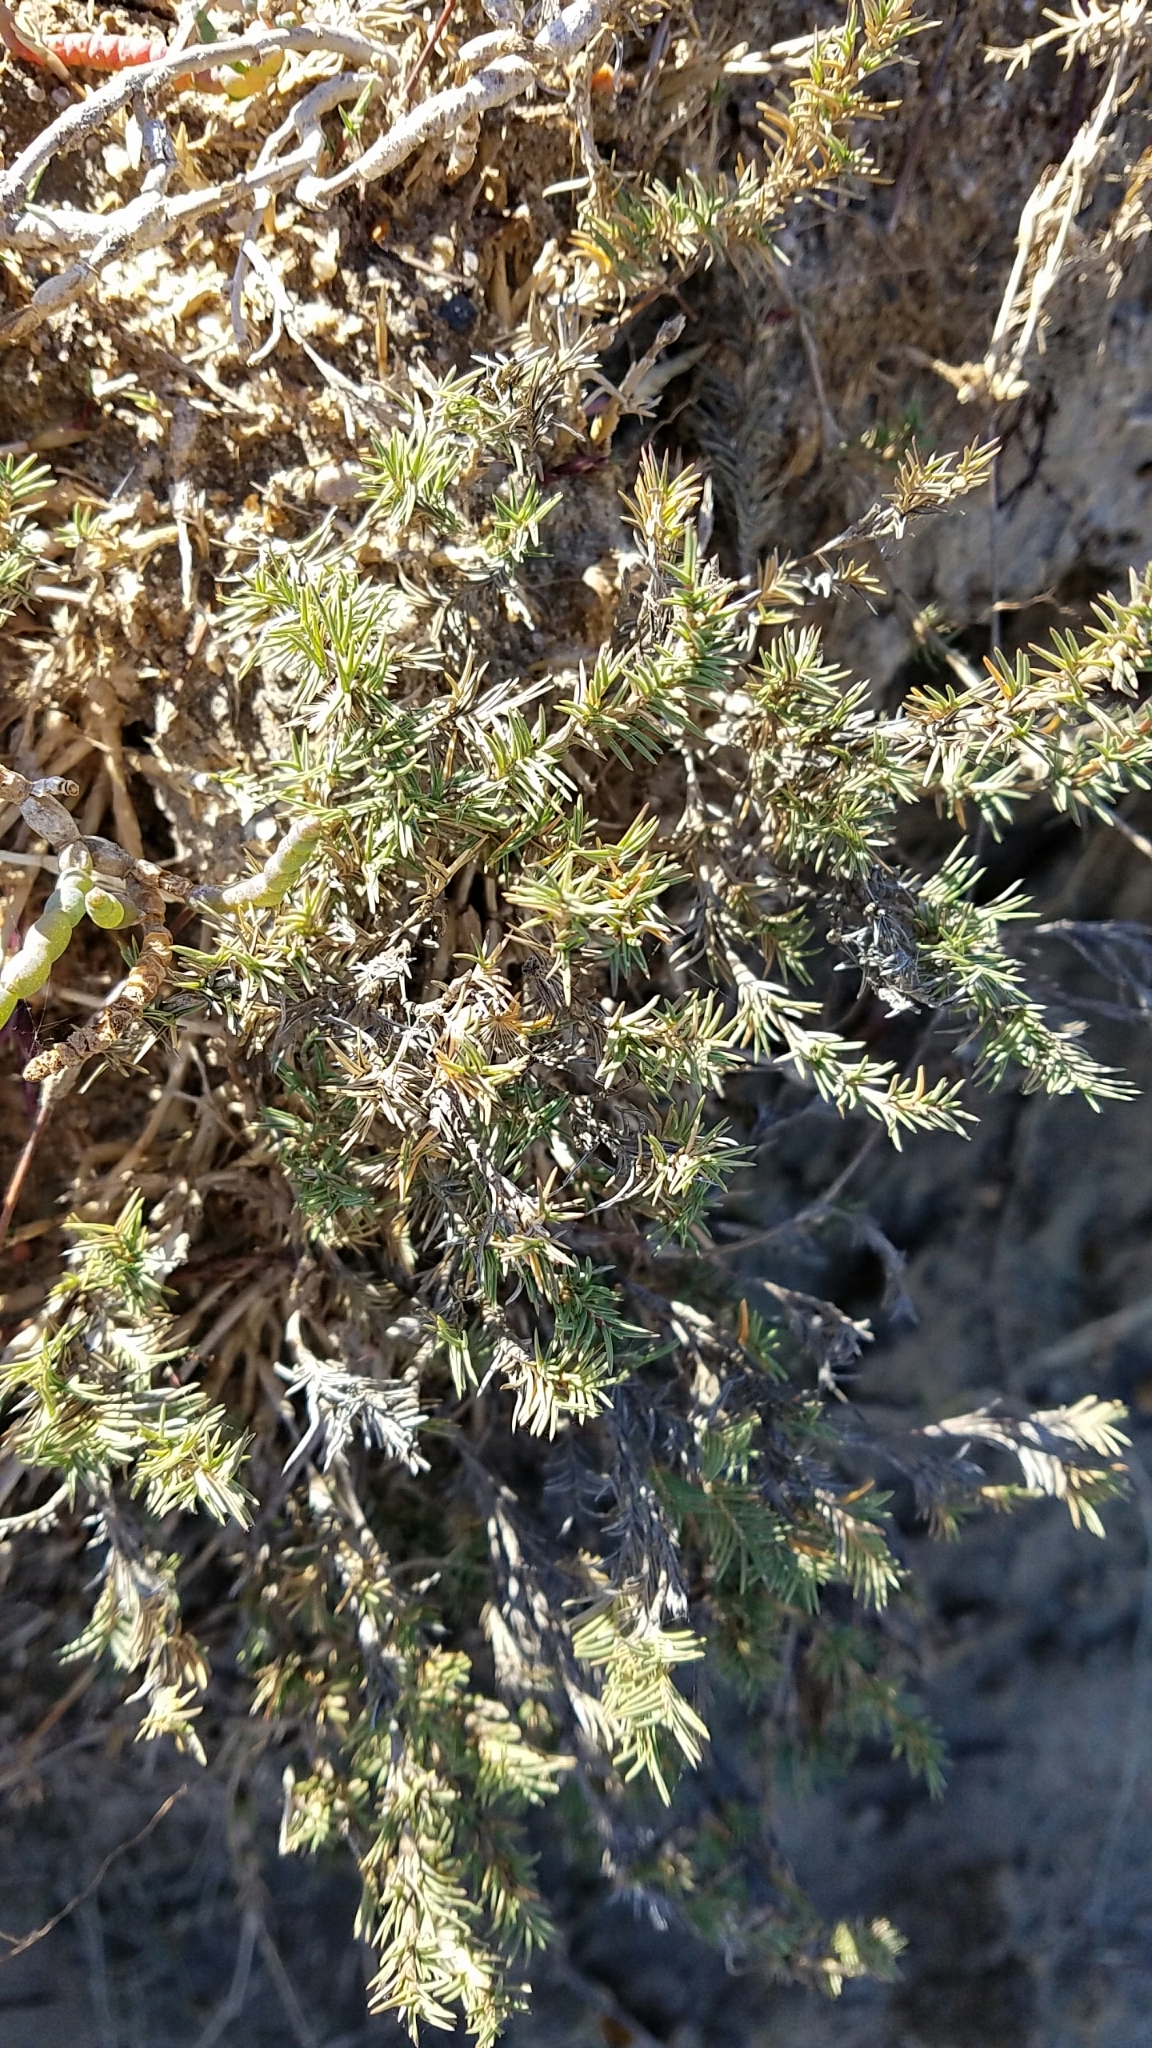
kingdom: Plantae
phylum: Tracheophyta
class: Liliopsida
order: Poales
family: Poaceae
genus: Distichlis
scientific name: Distichlis littoralis
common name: Shore grass
